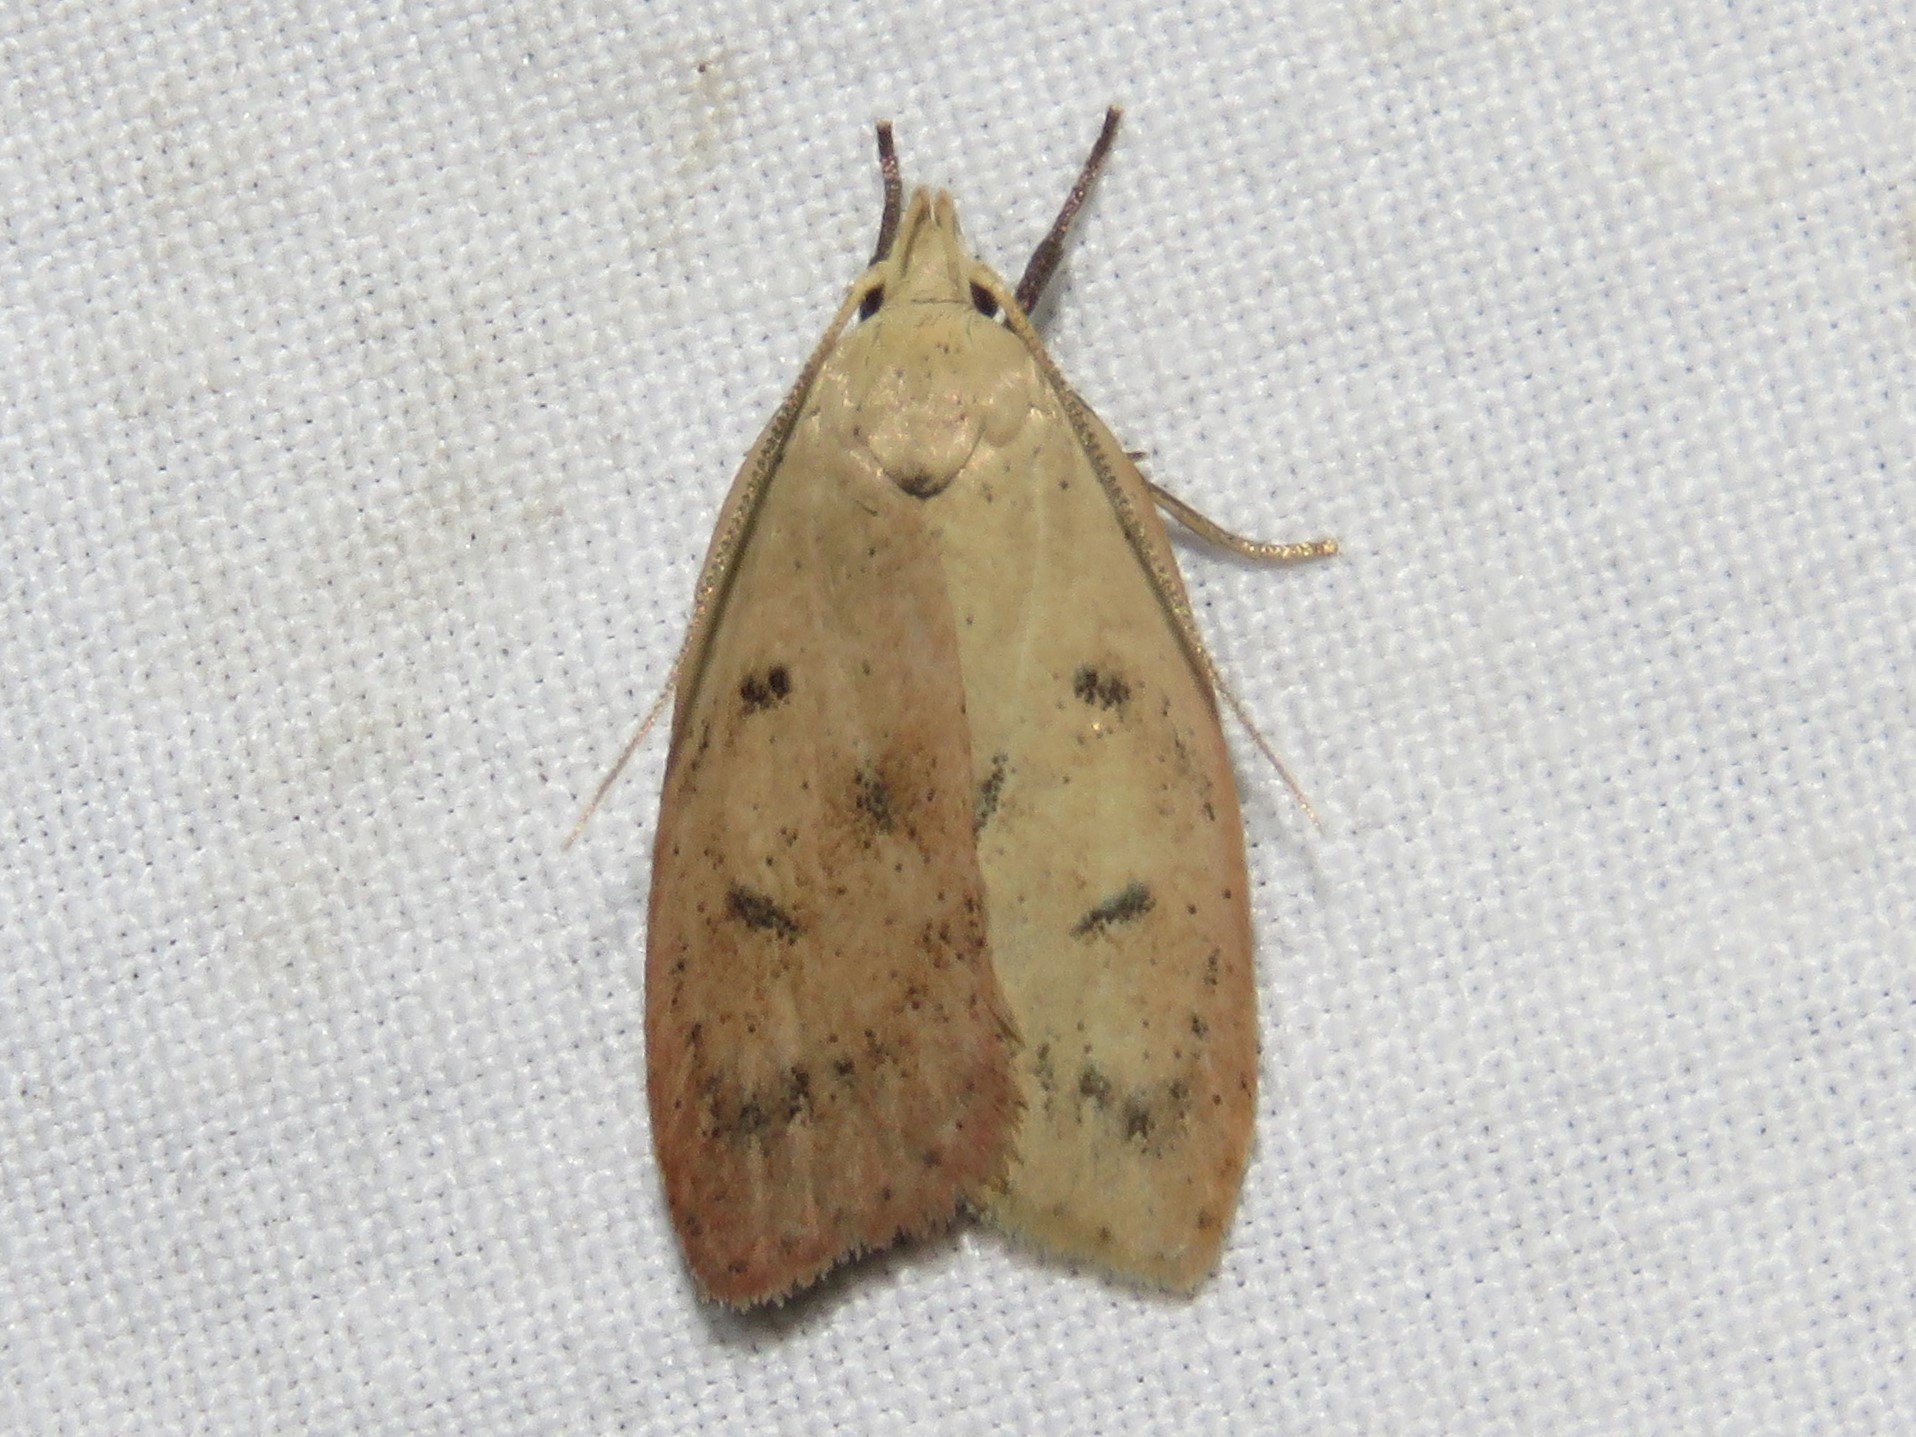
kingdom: Animalia
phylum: Arthropoda
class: Insecta
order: Lepidoptera
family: Peleopodidae
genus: Machimia
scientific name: Machimia tentoriferella
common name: Gold-striped leaftier moth
